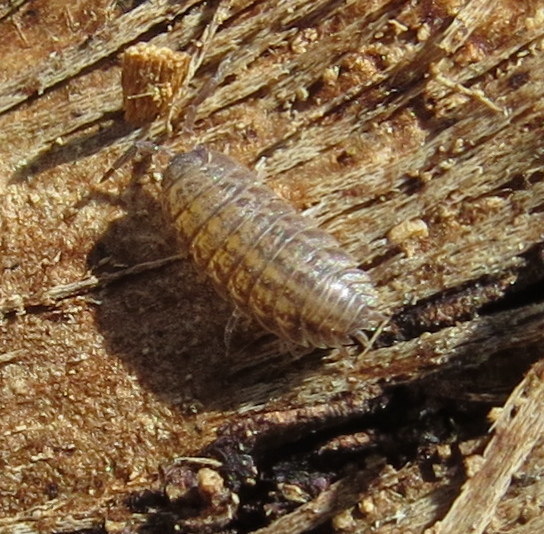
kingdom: Animalia
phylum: Arthropoda
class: Malacostraca
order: Isopoda
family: Trachelipodidae
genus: Trachelipus
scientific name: Trachelipus rathkii
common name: Isopod
